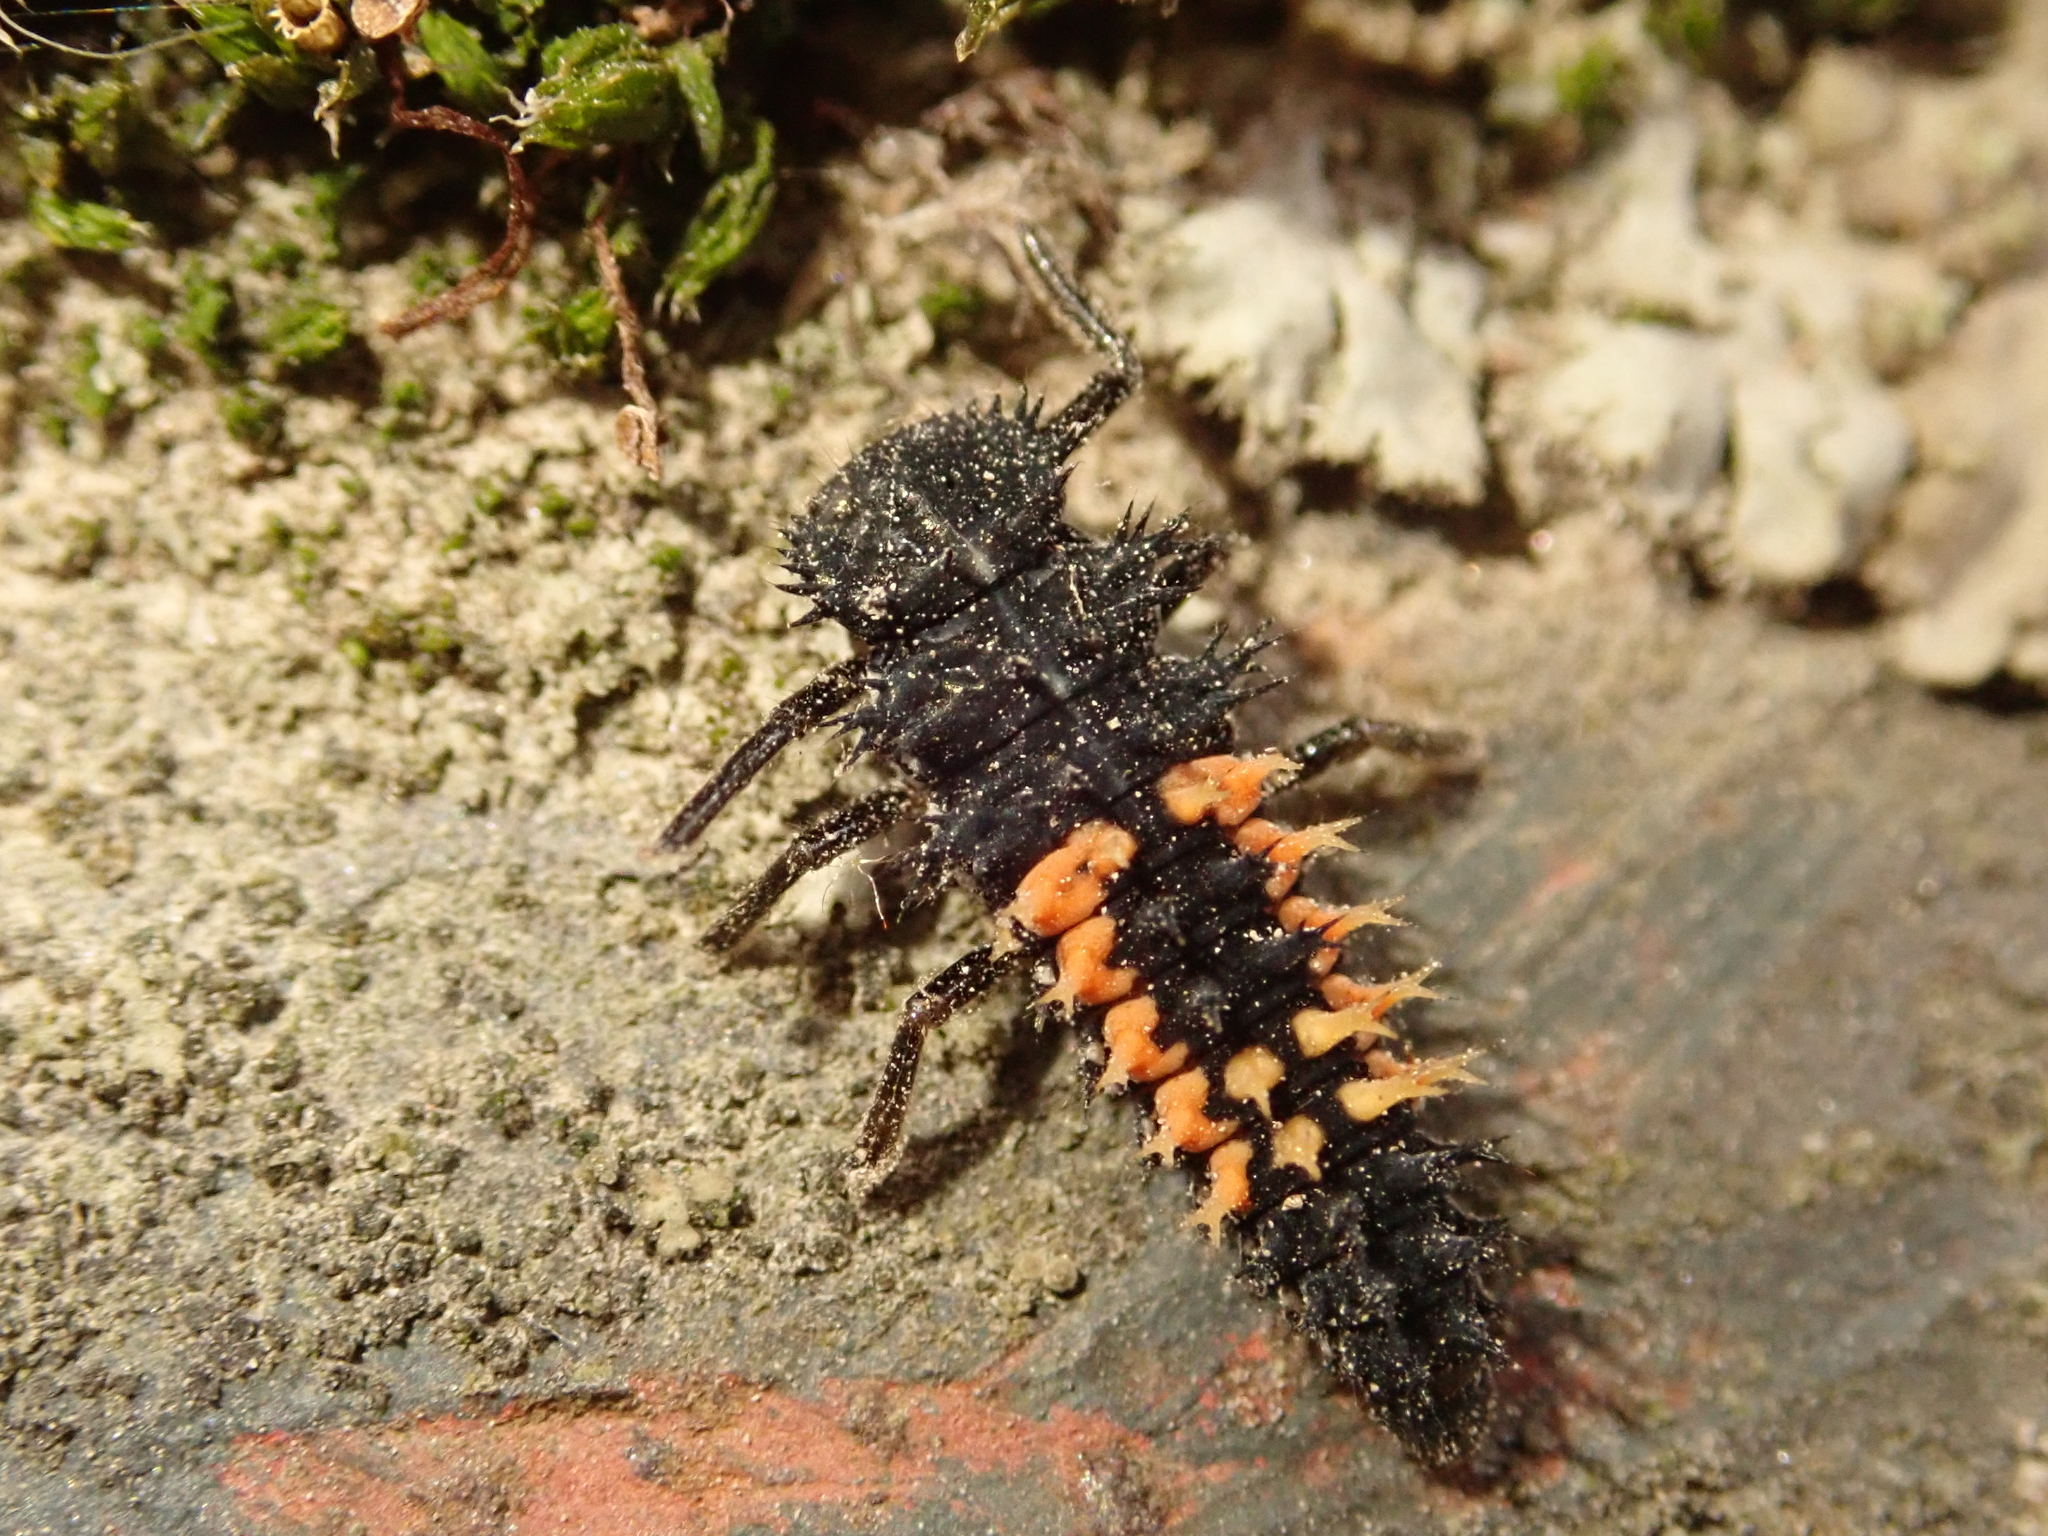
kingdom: Animalia
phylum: Arthropoda
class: Insecta
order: Coleoptera
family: Coccinellidae
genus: Harmonia
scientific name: Harmonia axyridis
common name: Harlequin ladybird
